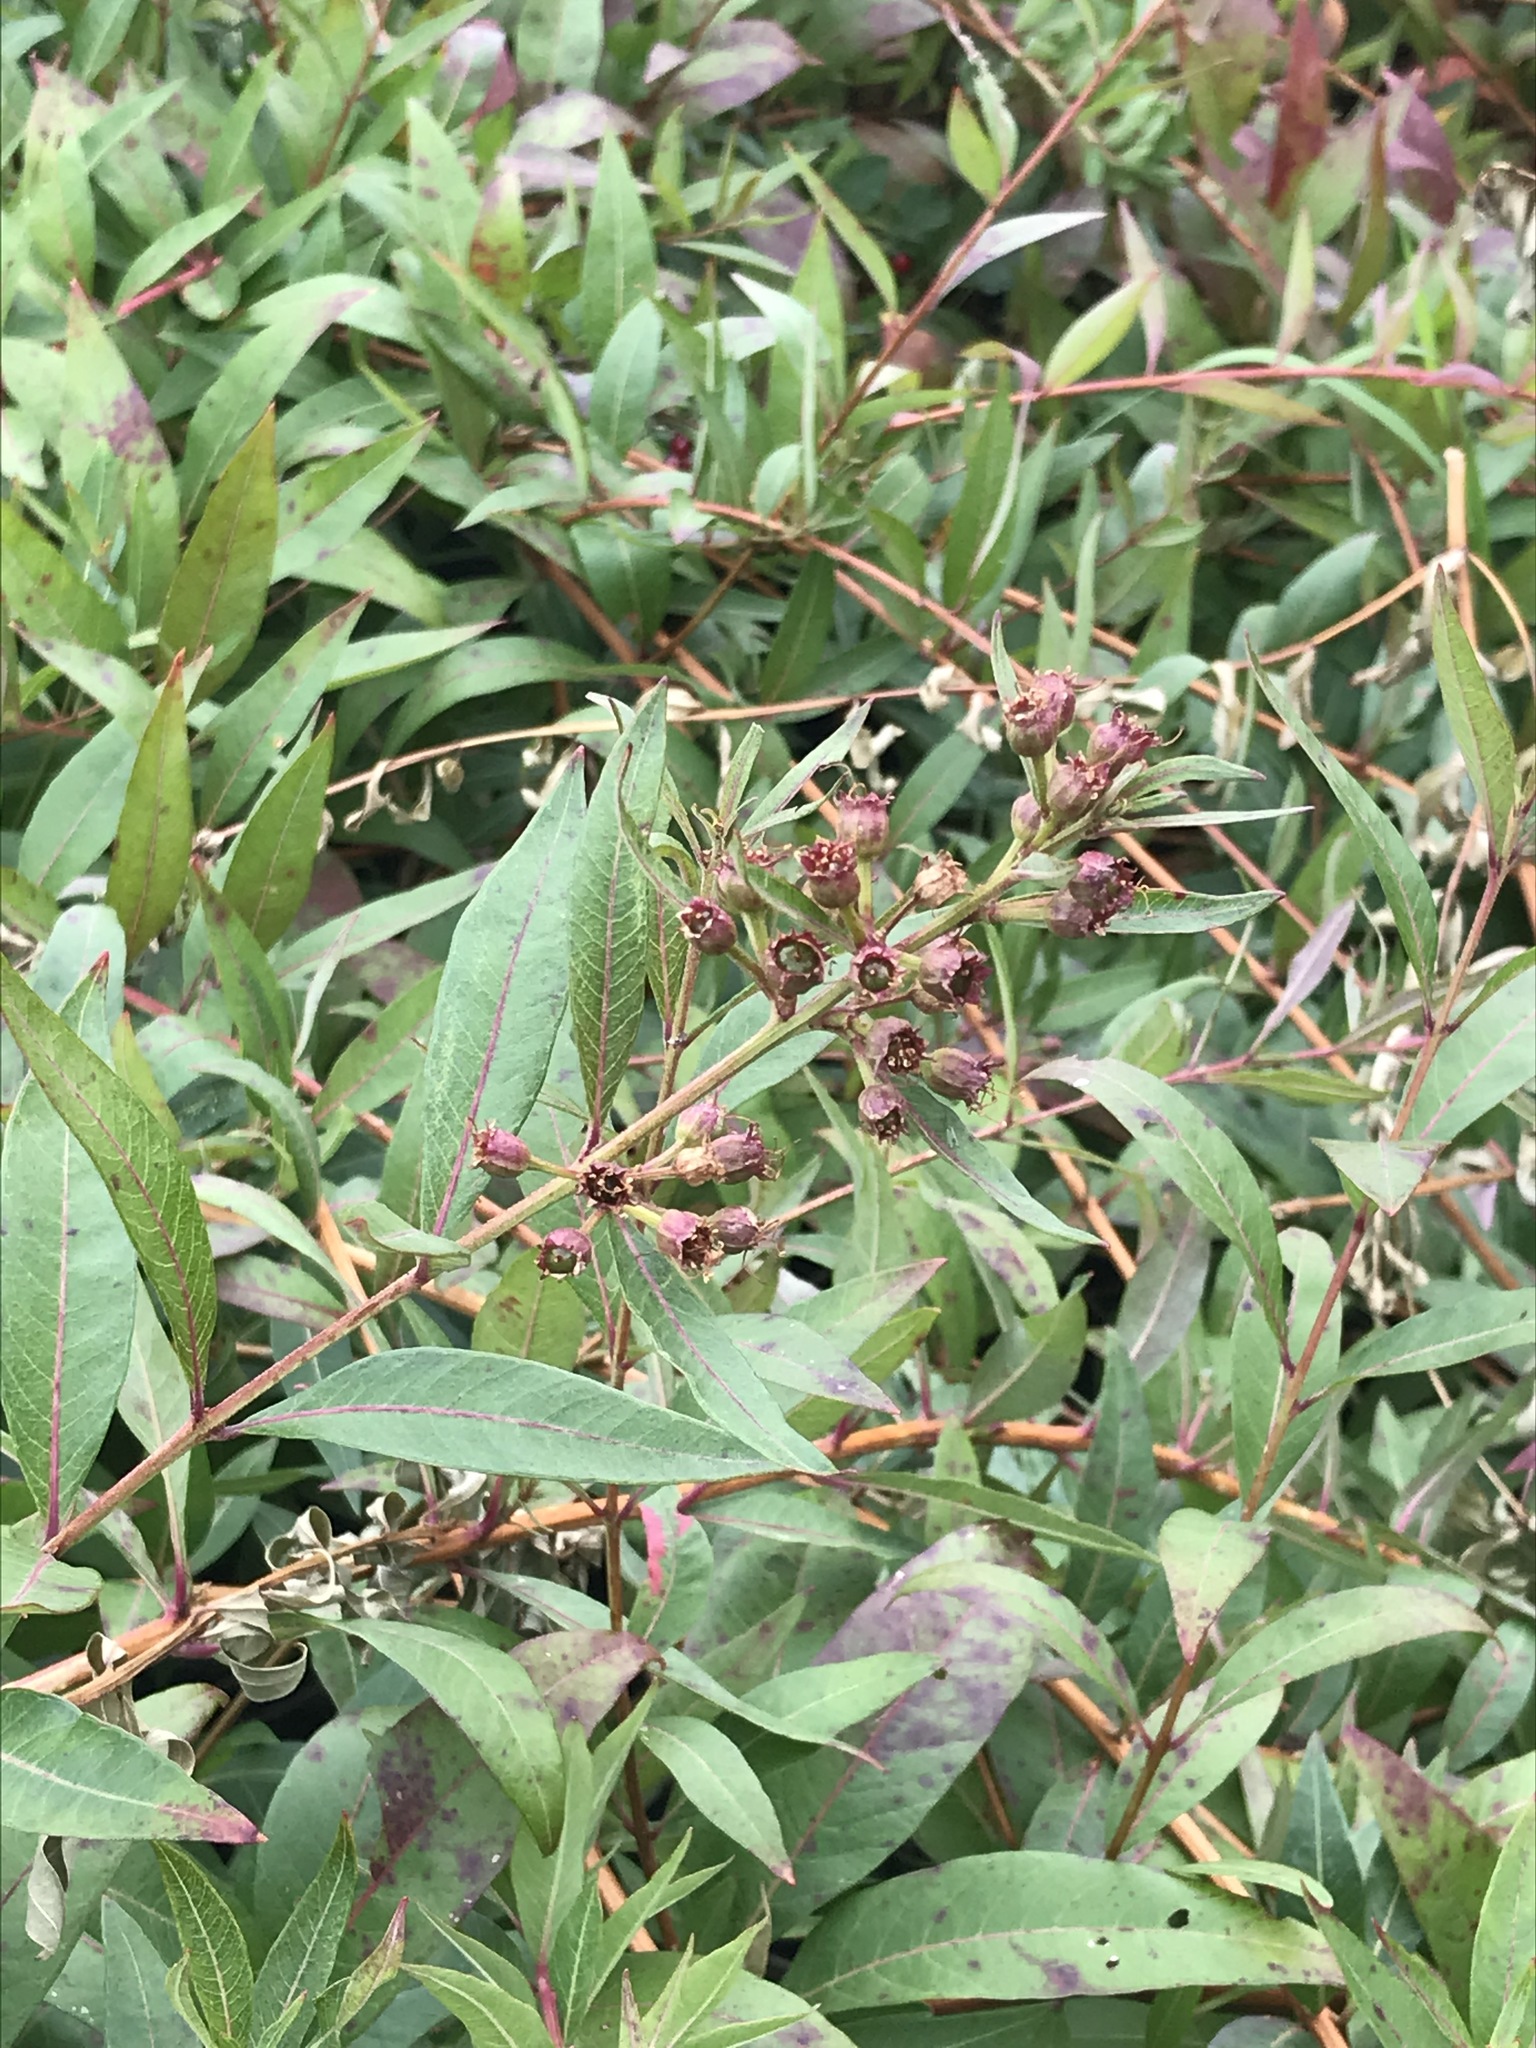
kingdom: Plantae
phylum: Tracheophyta
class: Magnoliopsida
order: Myrtales
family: Lythraceae
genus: Decodon
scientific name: Decodon verticillatus
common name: Hairy swamp loosestrife
